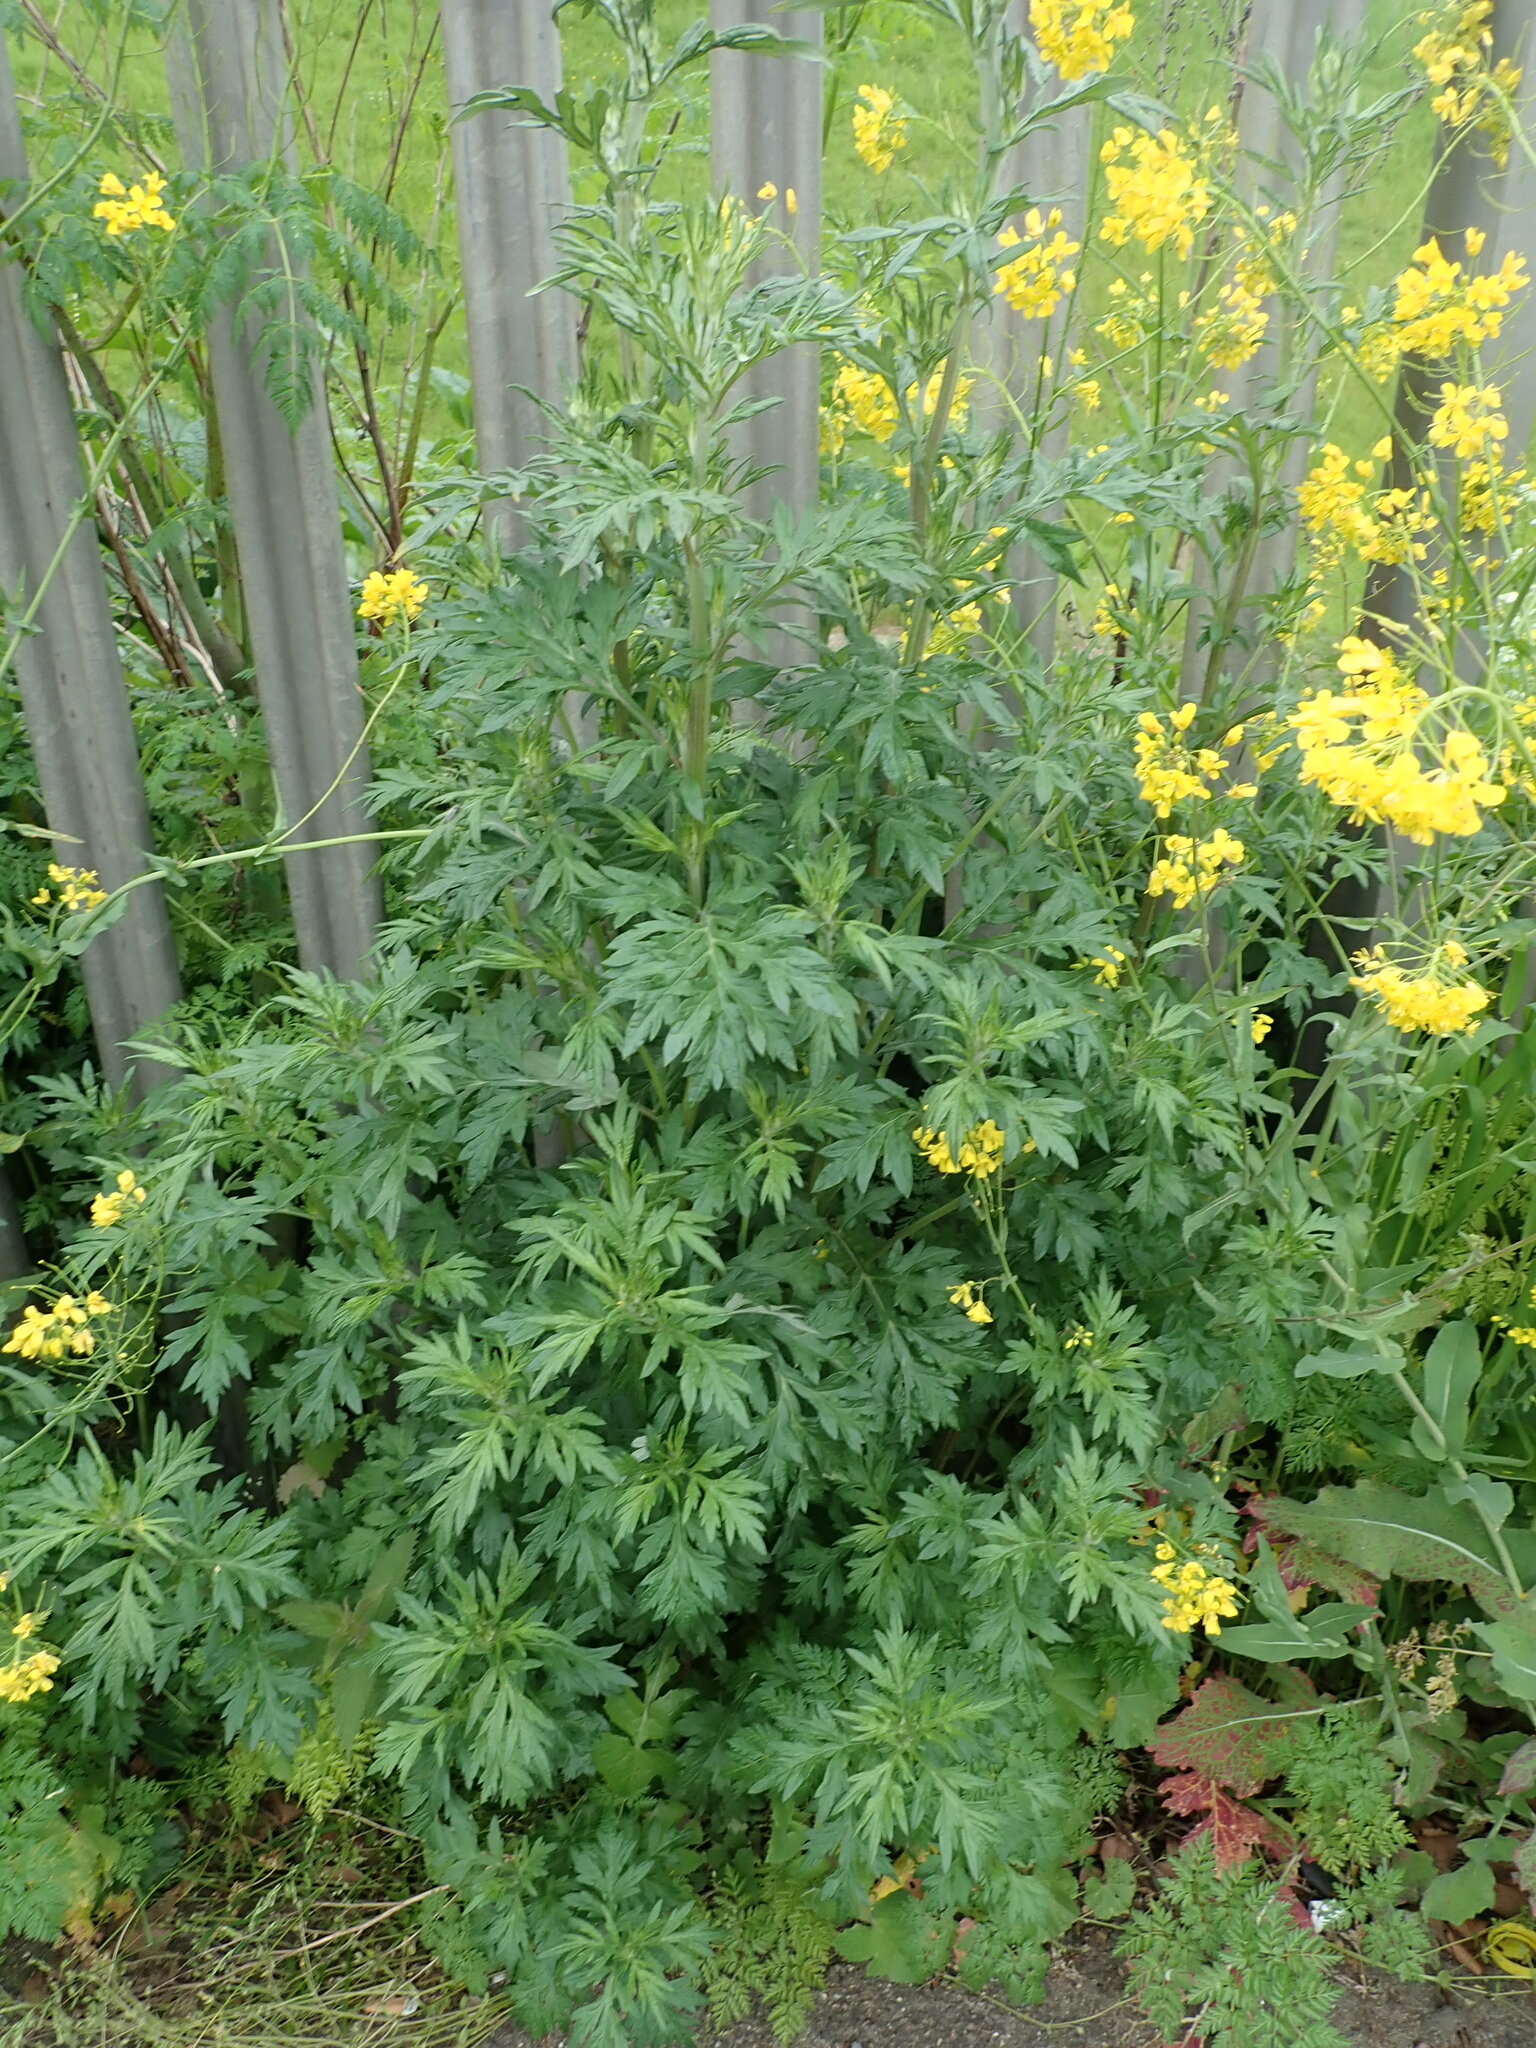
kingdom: Plantae
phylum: Tracheophyta
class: Magnoliopsida
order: Asterales
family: Asteraceae
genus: Artemisia
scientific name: Artemisia vulgaris
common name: Mugwort
